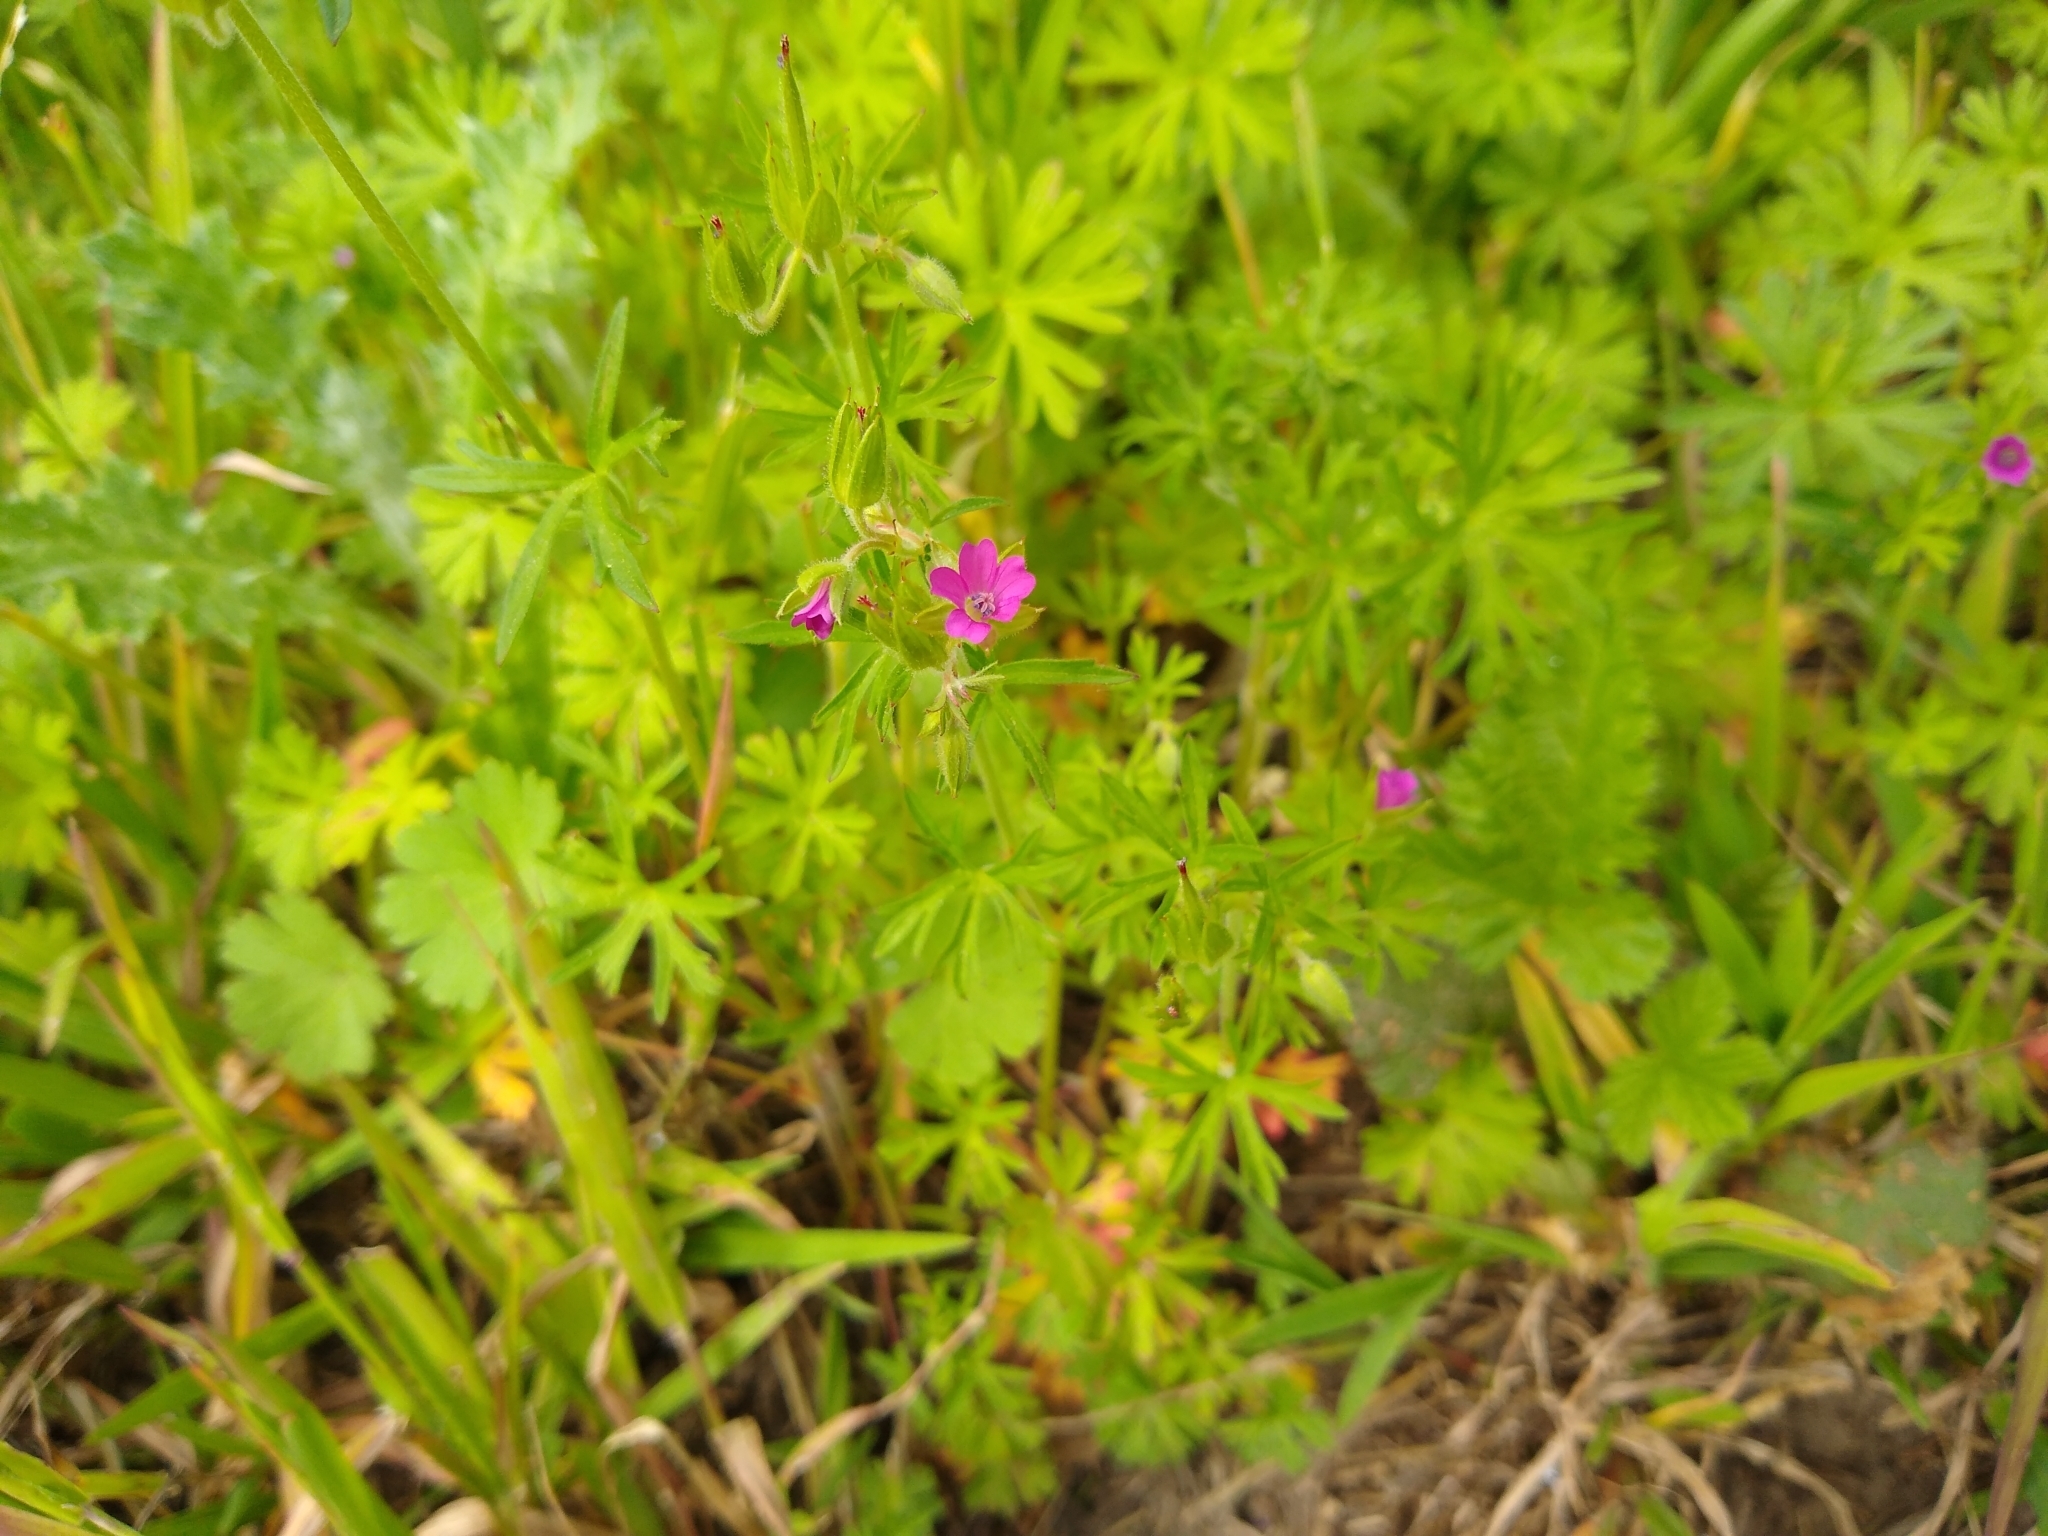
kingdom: Plantae
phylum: Tracheophyta
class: Magnoliopsida
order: Geraniales
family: Geraniaceae
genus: Geranium
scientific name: Geranium dissectum
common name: Cut-leaved crane's-bill
